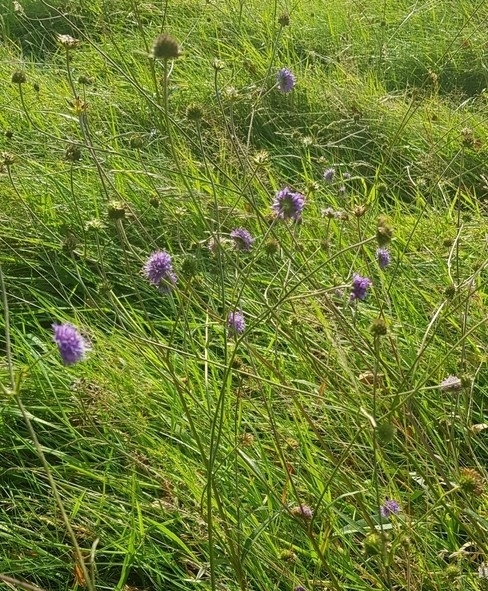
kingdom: Plantae
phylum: Tracheophyta
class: Magnoliopsida
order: Dipsacales
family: Caprifoliaceae
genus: Succisa
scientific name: Succisa pratensis
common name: Devil's-bit
